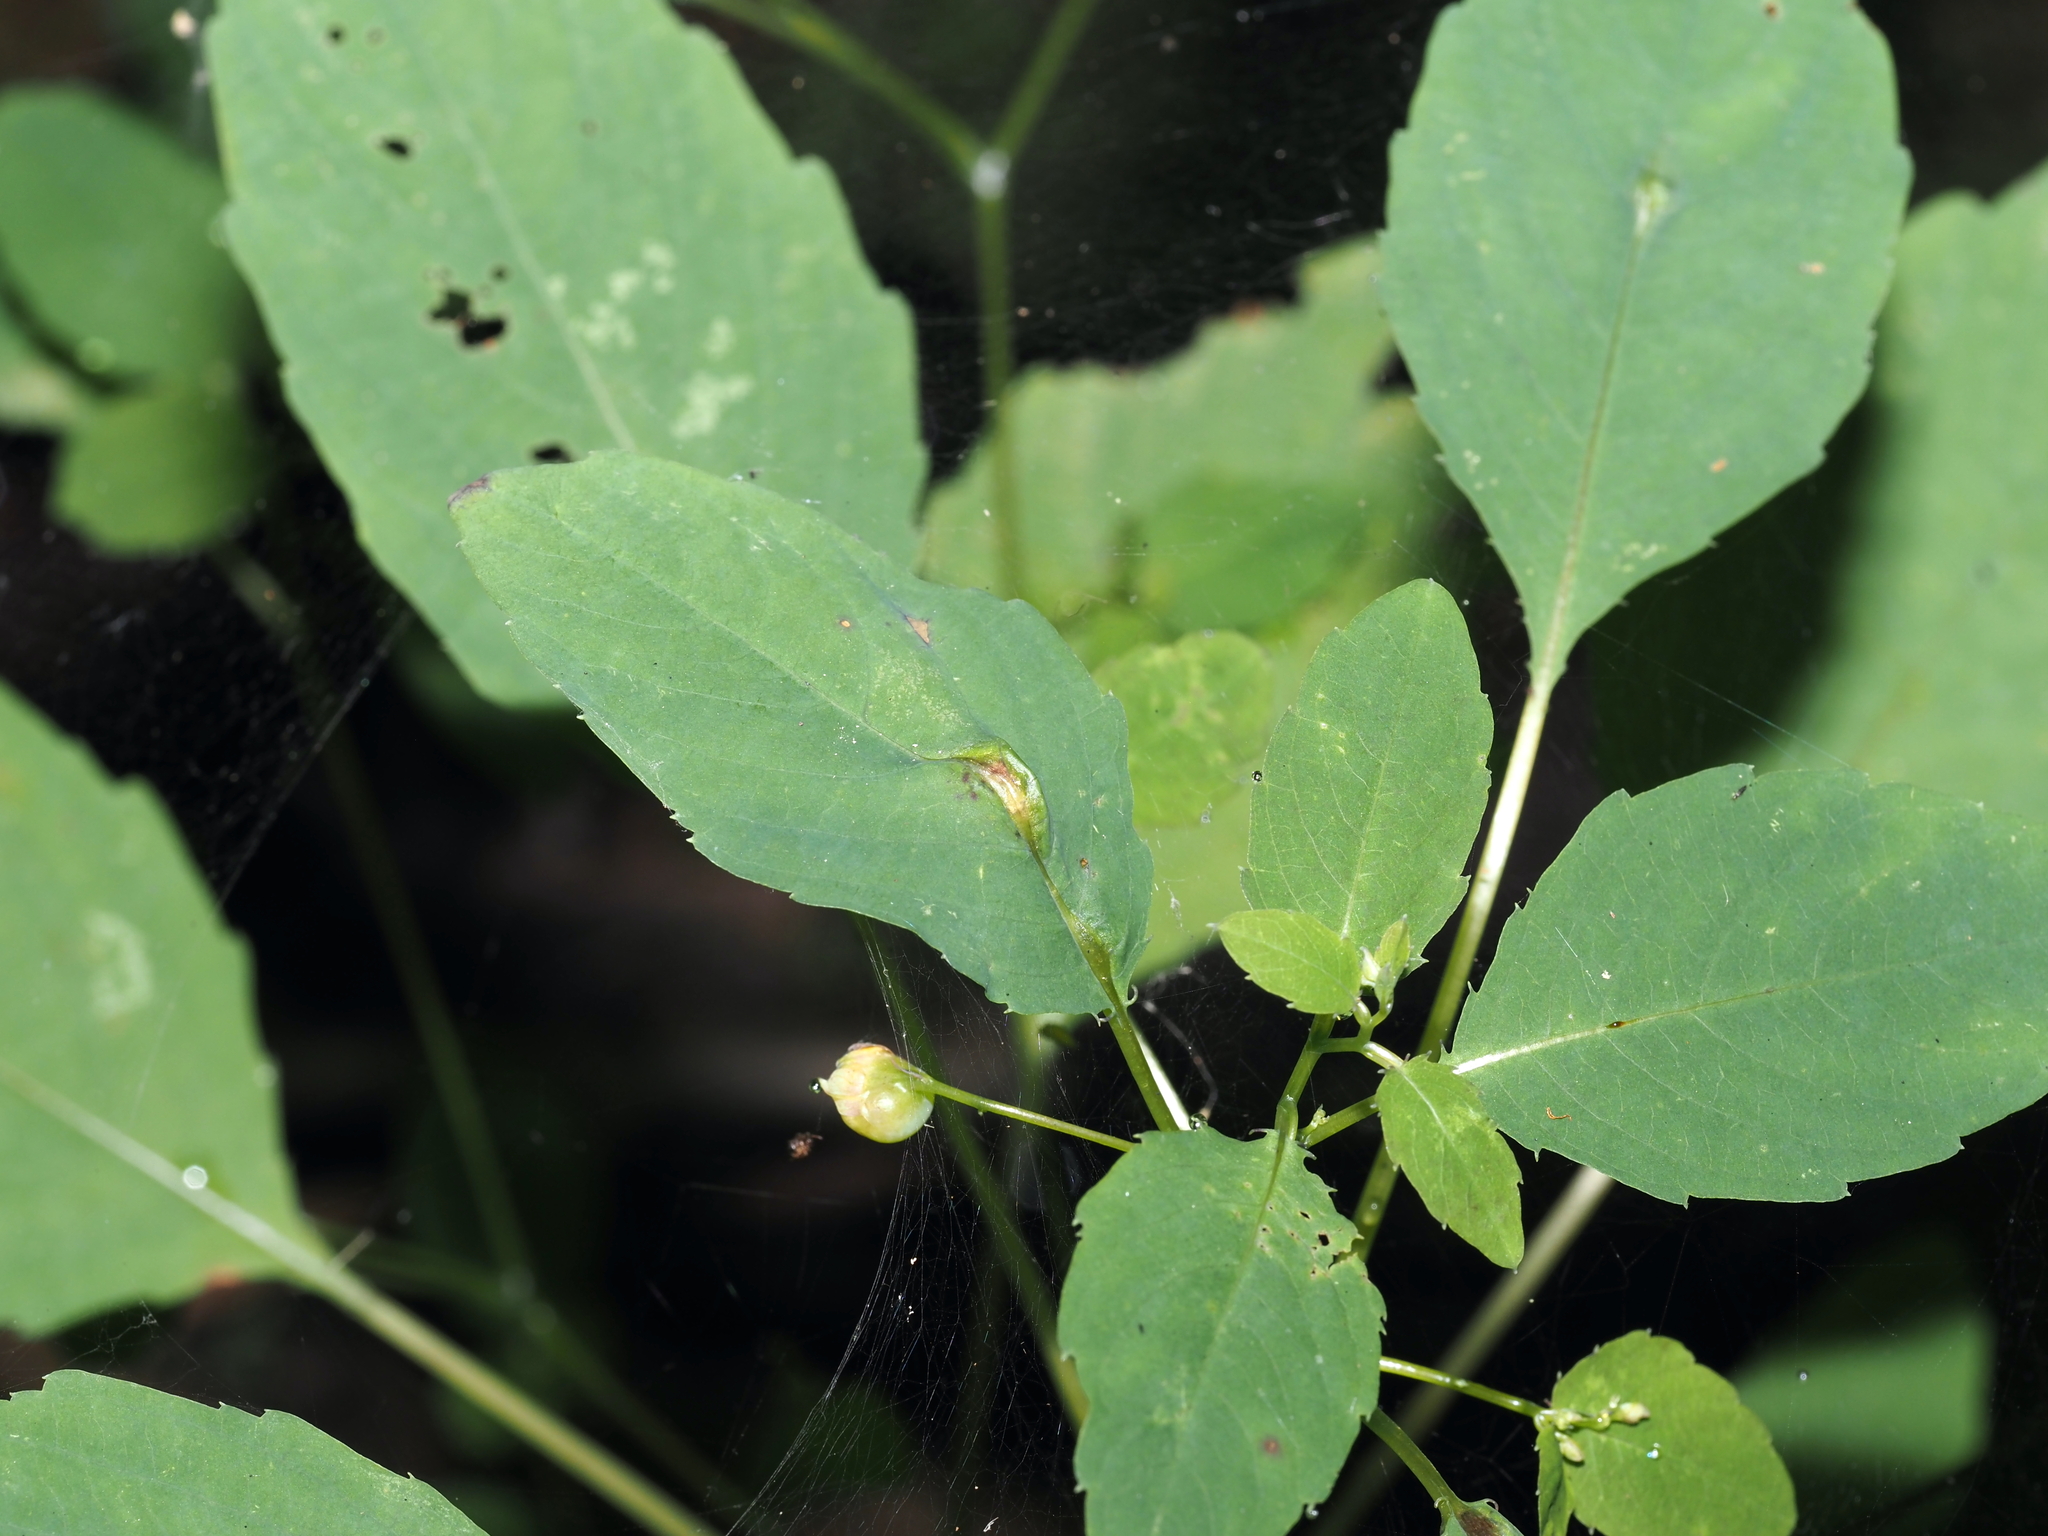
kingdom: Animalia
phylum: Arthropoda
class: Insecta
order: Diptera
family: Cecidomyiidae
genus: Neolasioptera
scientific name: Neolasioptera impatientifolia
